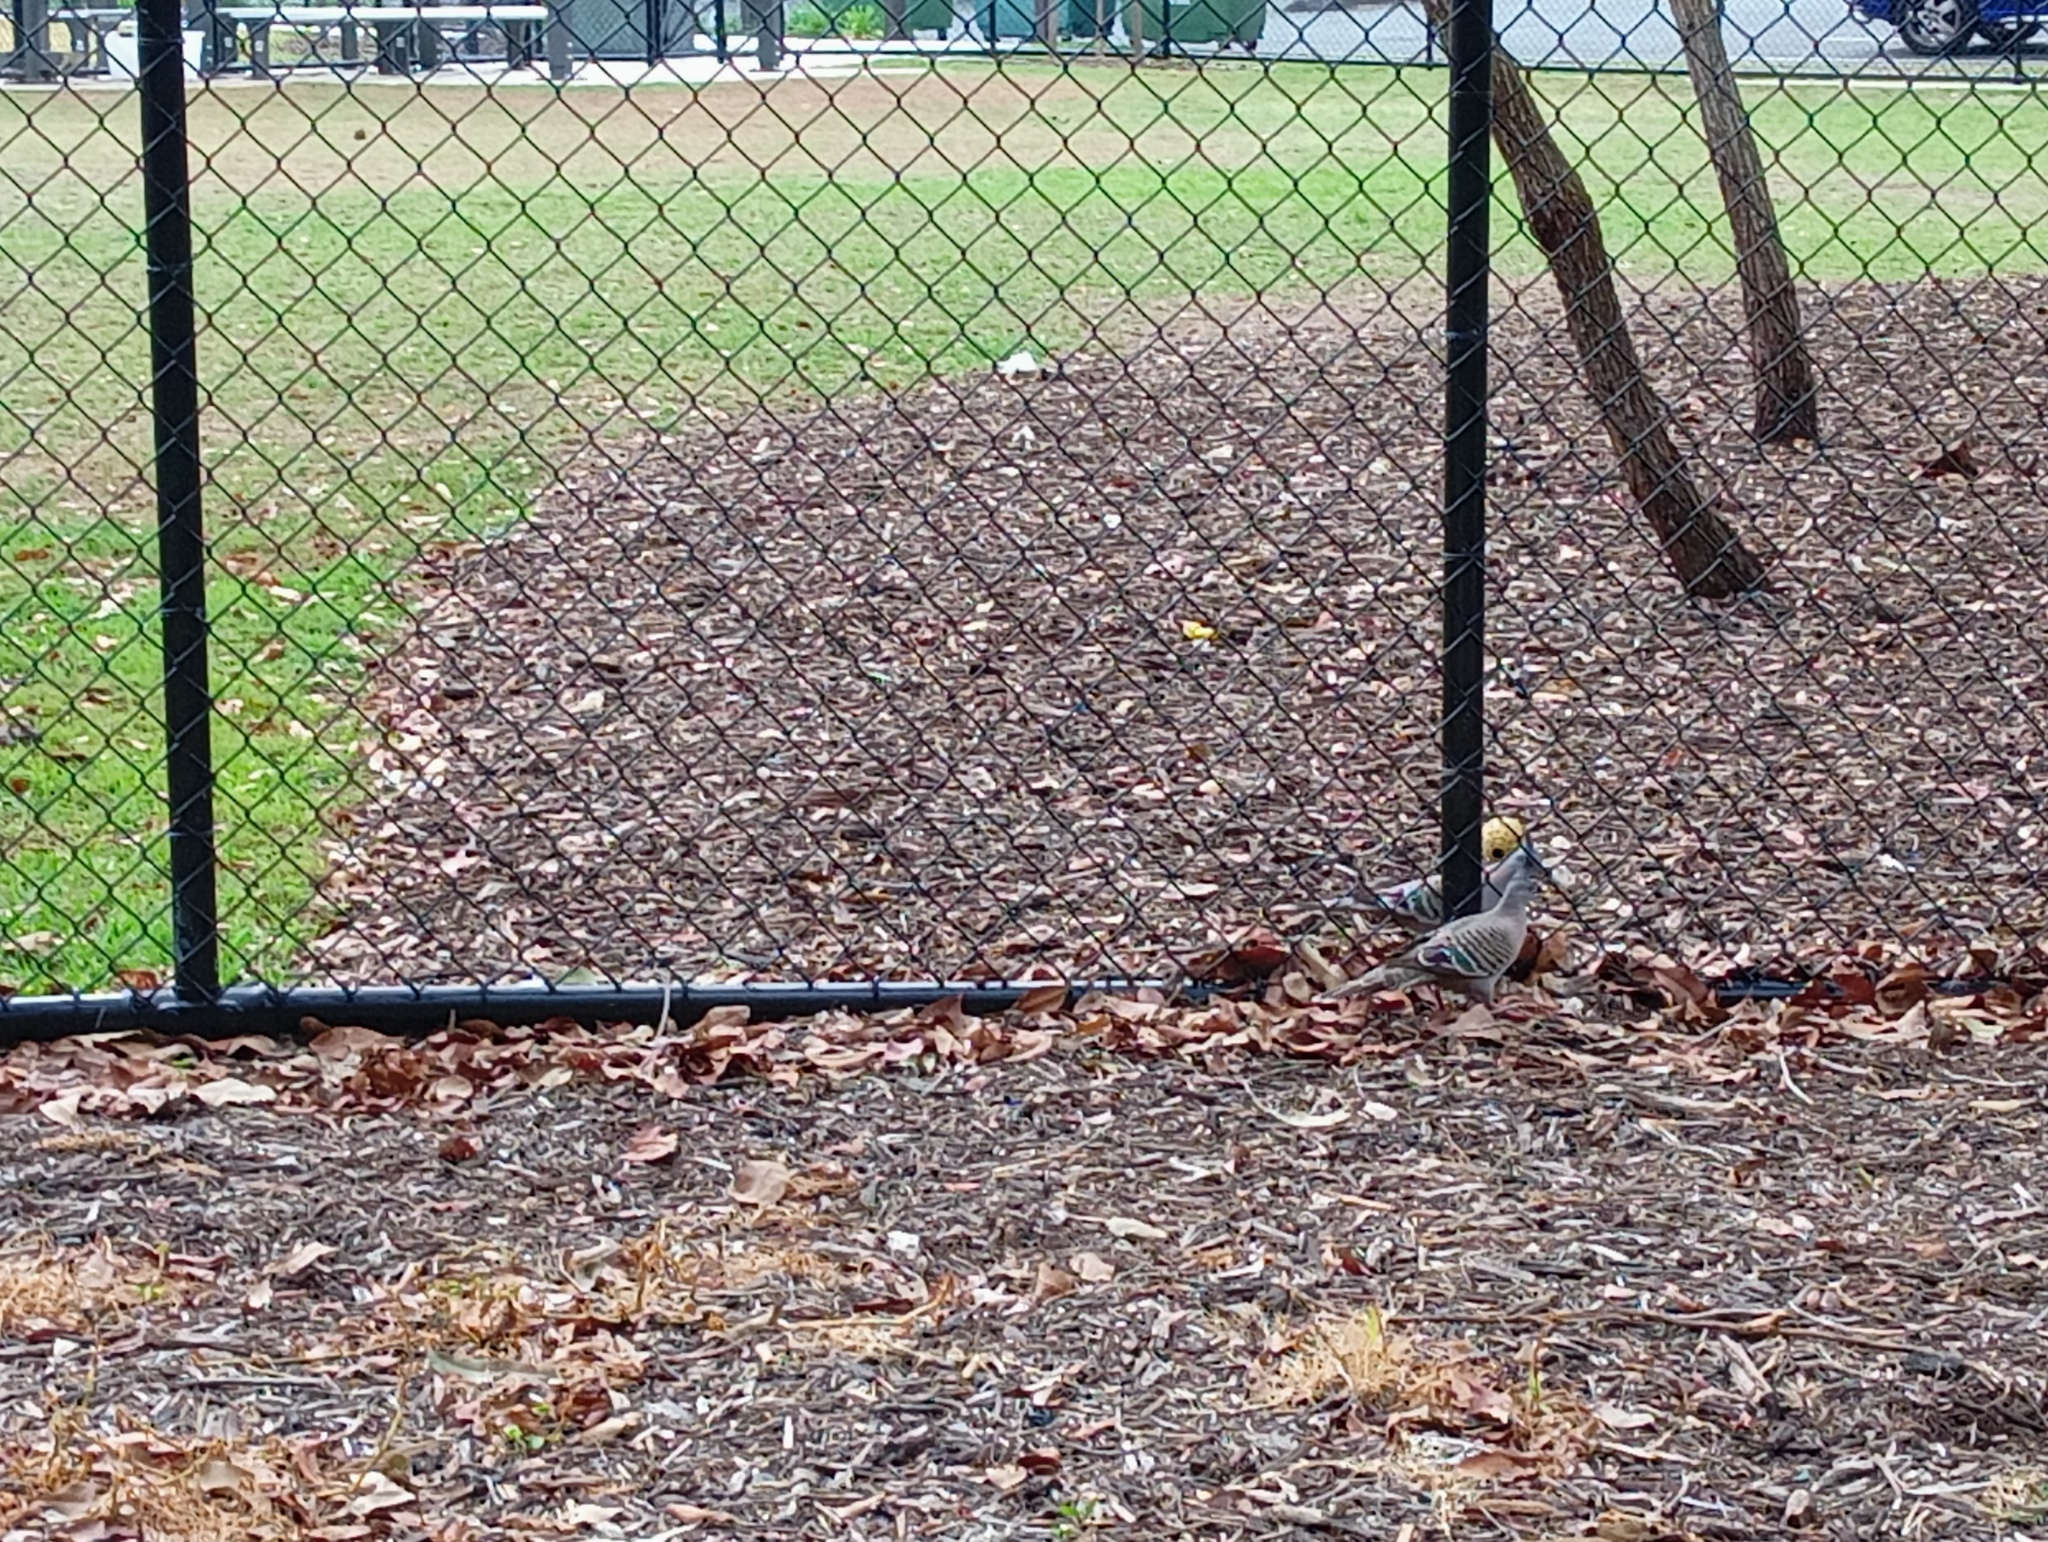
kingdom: Animalia
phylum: Chordata
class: Aves
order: Columbiformes
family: Columbidae
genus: Ocyphaps
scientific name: Ocyphaps lophotes
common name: Crested pigeon
